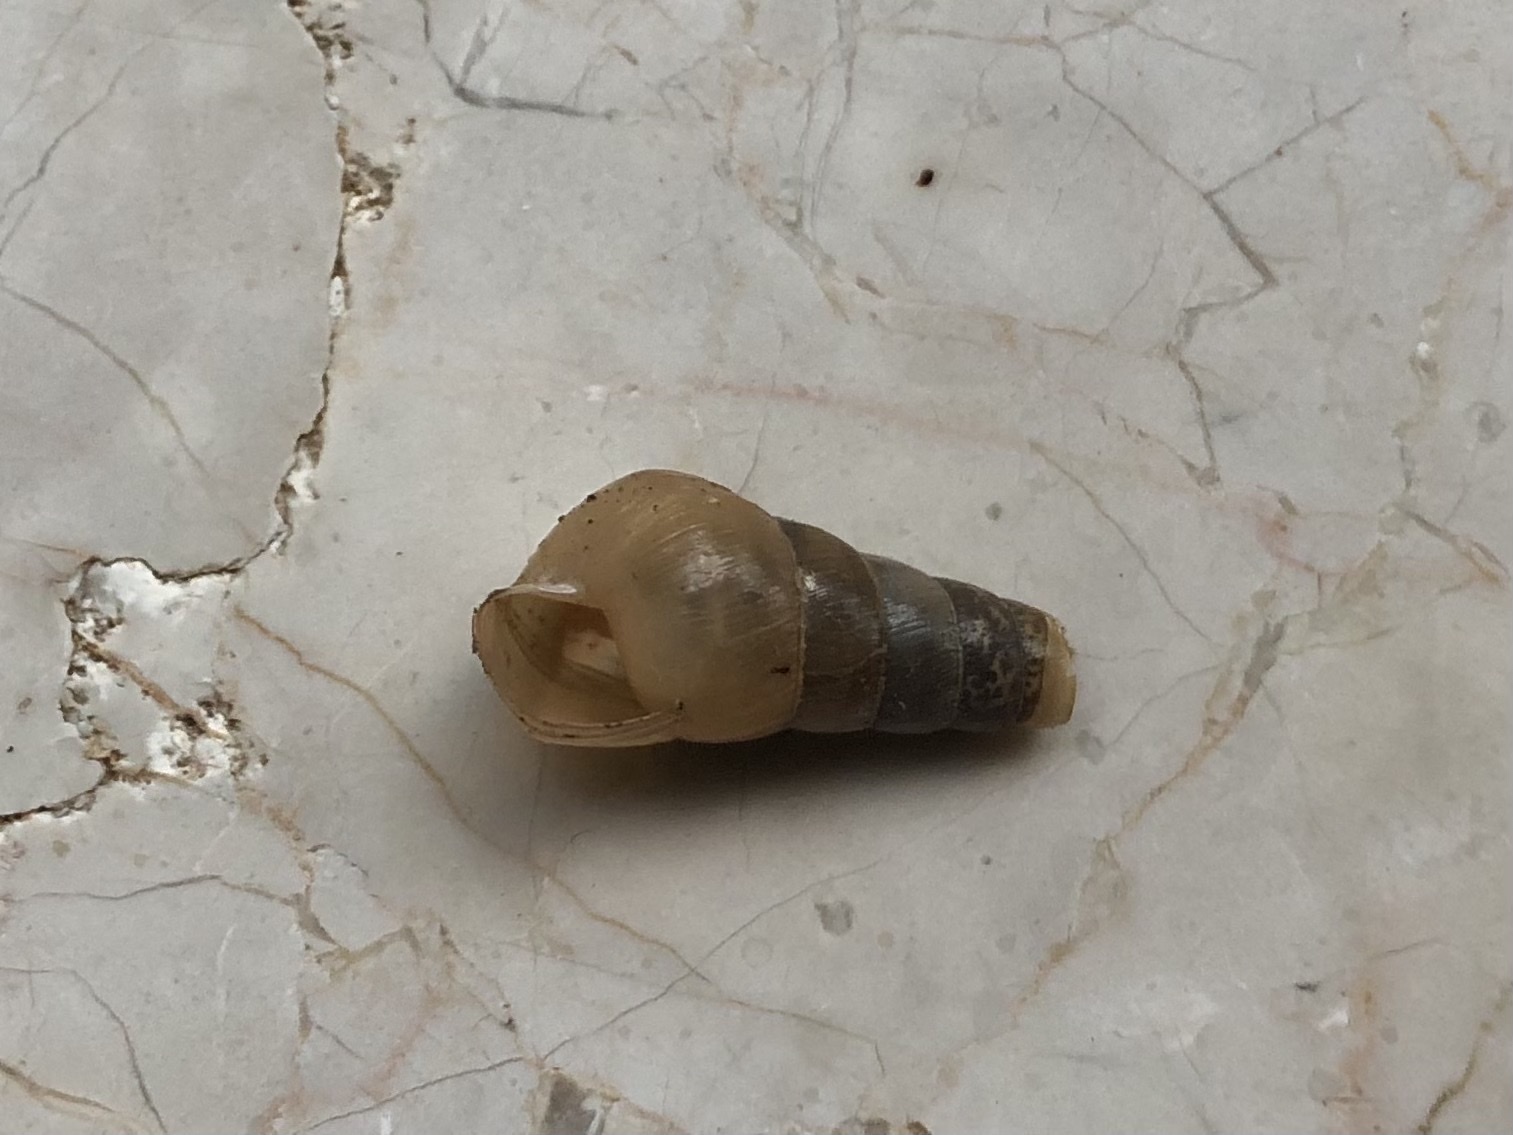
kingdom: Animalia
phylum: Mollusca
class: Gastropoda
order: Stylommatophora
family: Achatinidae
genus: Rumina
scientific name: Rumina decollata
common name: Decollate snail
